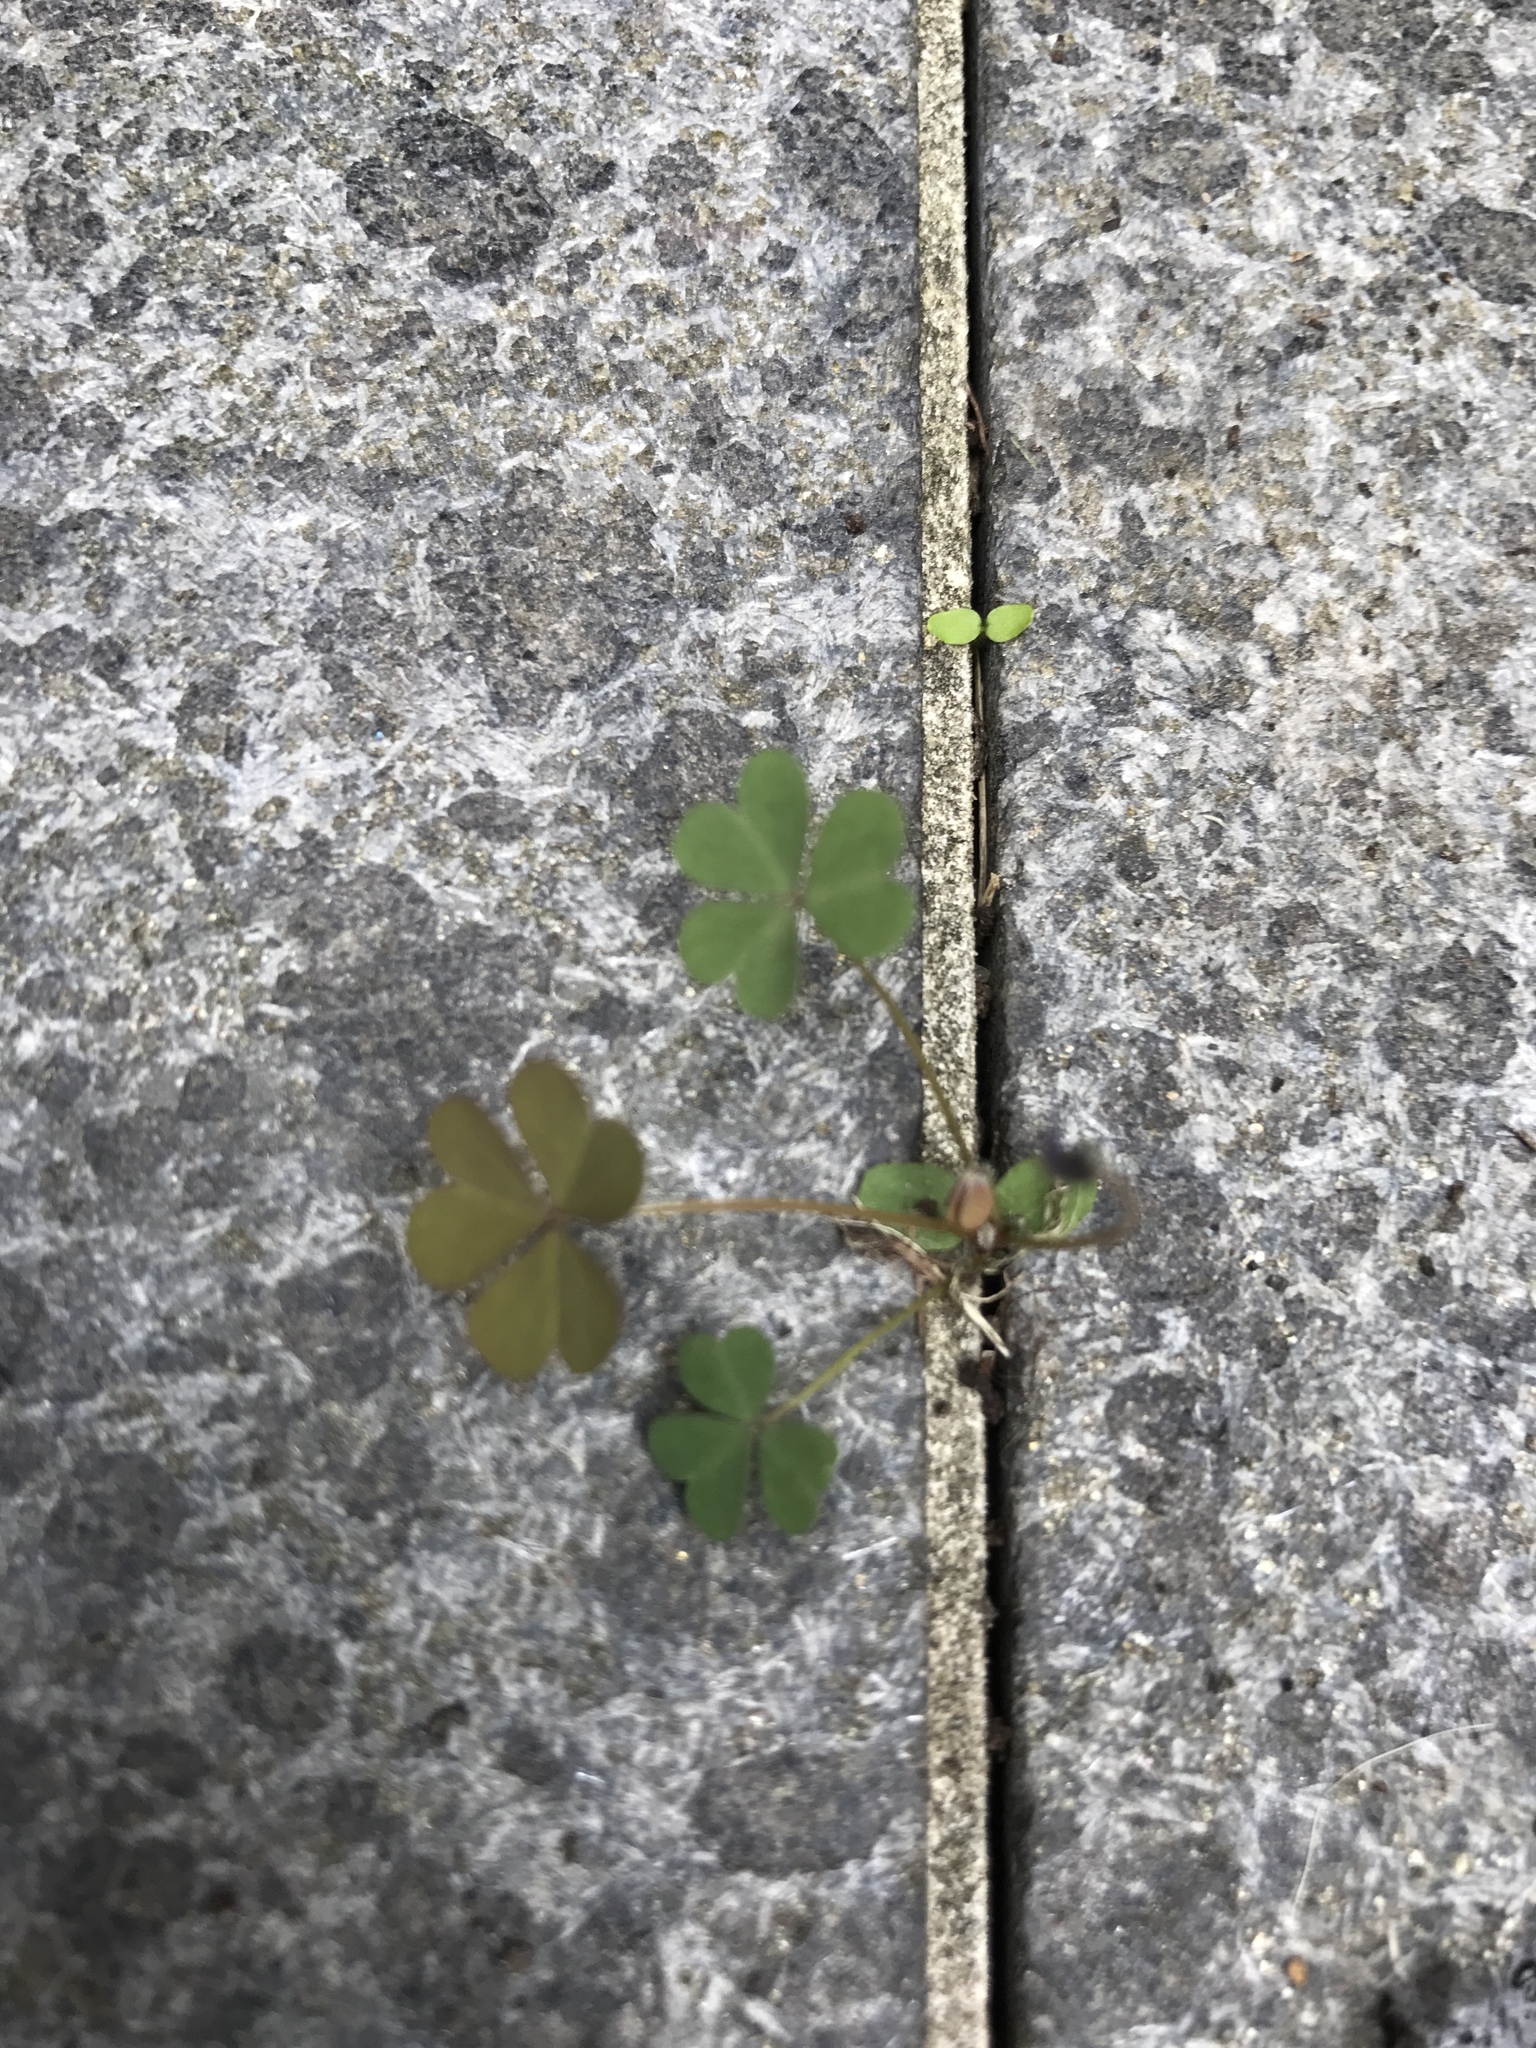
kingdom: Plantae
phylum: Tracheophyta
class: Magnoliopsida
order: Oxalidales
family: Oxalidaceae
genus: Oxalis
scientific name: Oxalis corniculata
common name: Procumbent yellow-sorrel
